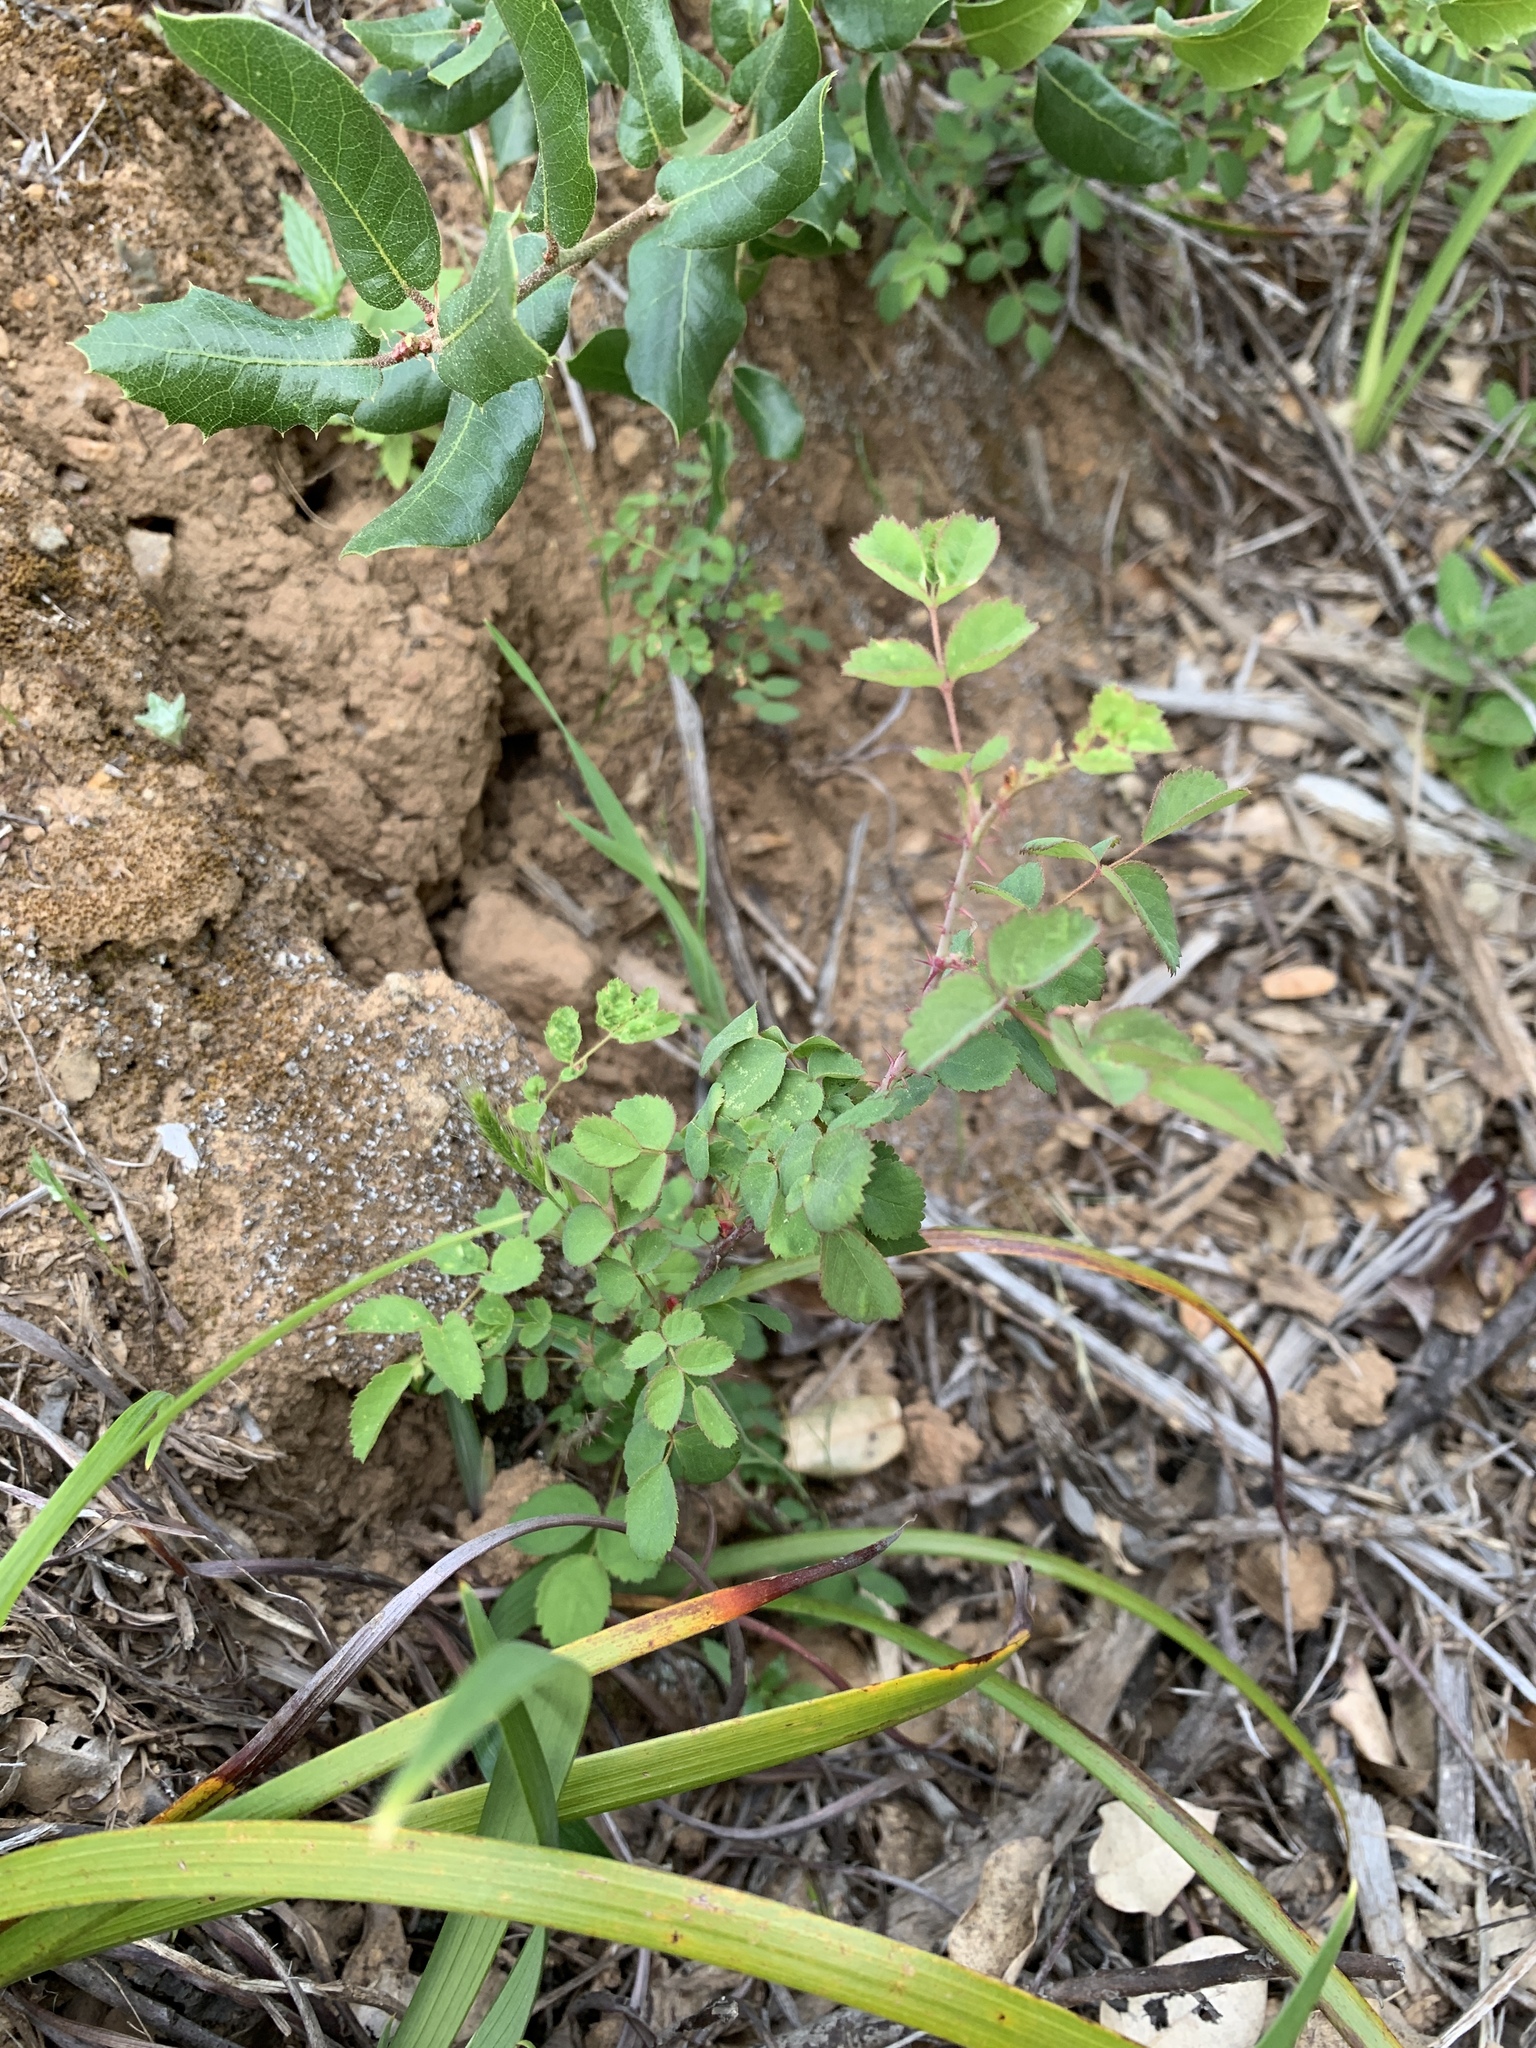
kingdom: Plantae
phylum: Tracheophyta
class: Magnoliopsida
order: Rosales
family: Rosaceae
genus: Rosa
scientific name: Rosa spithamea
